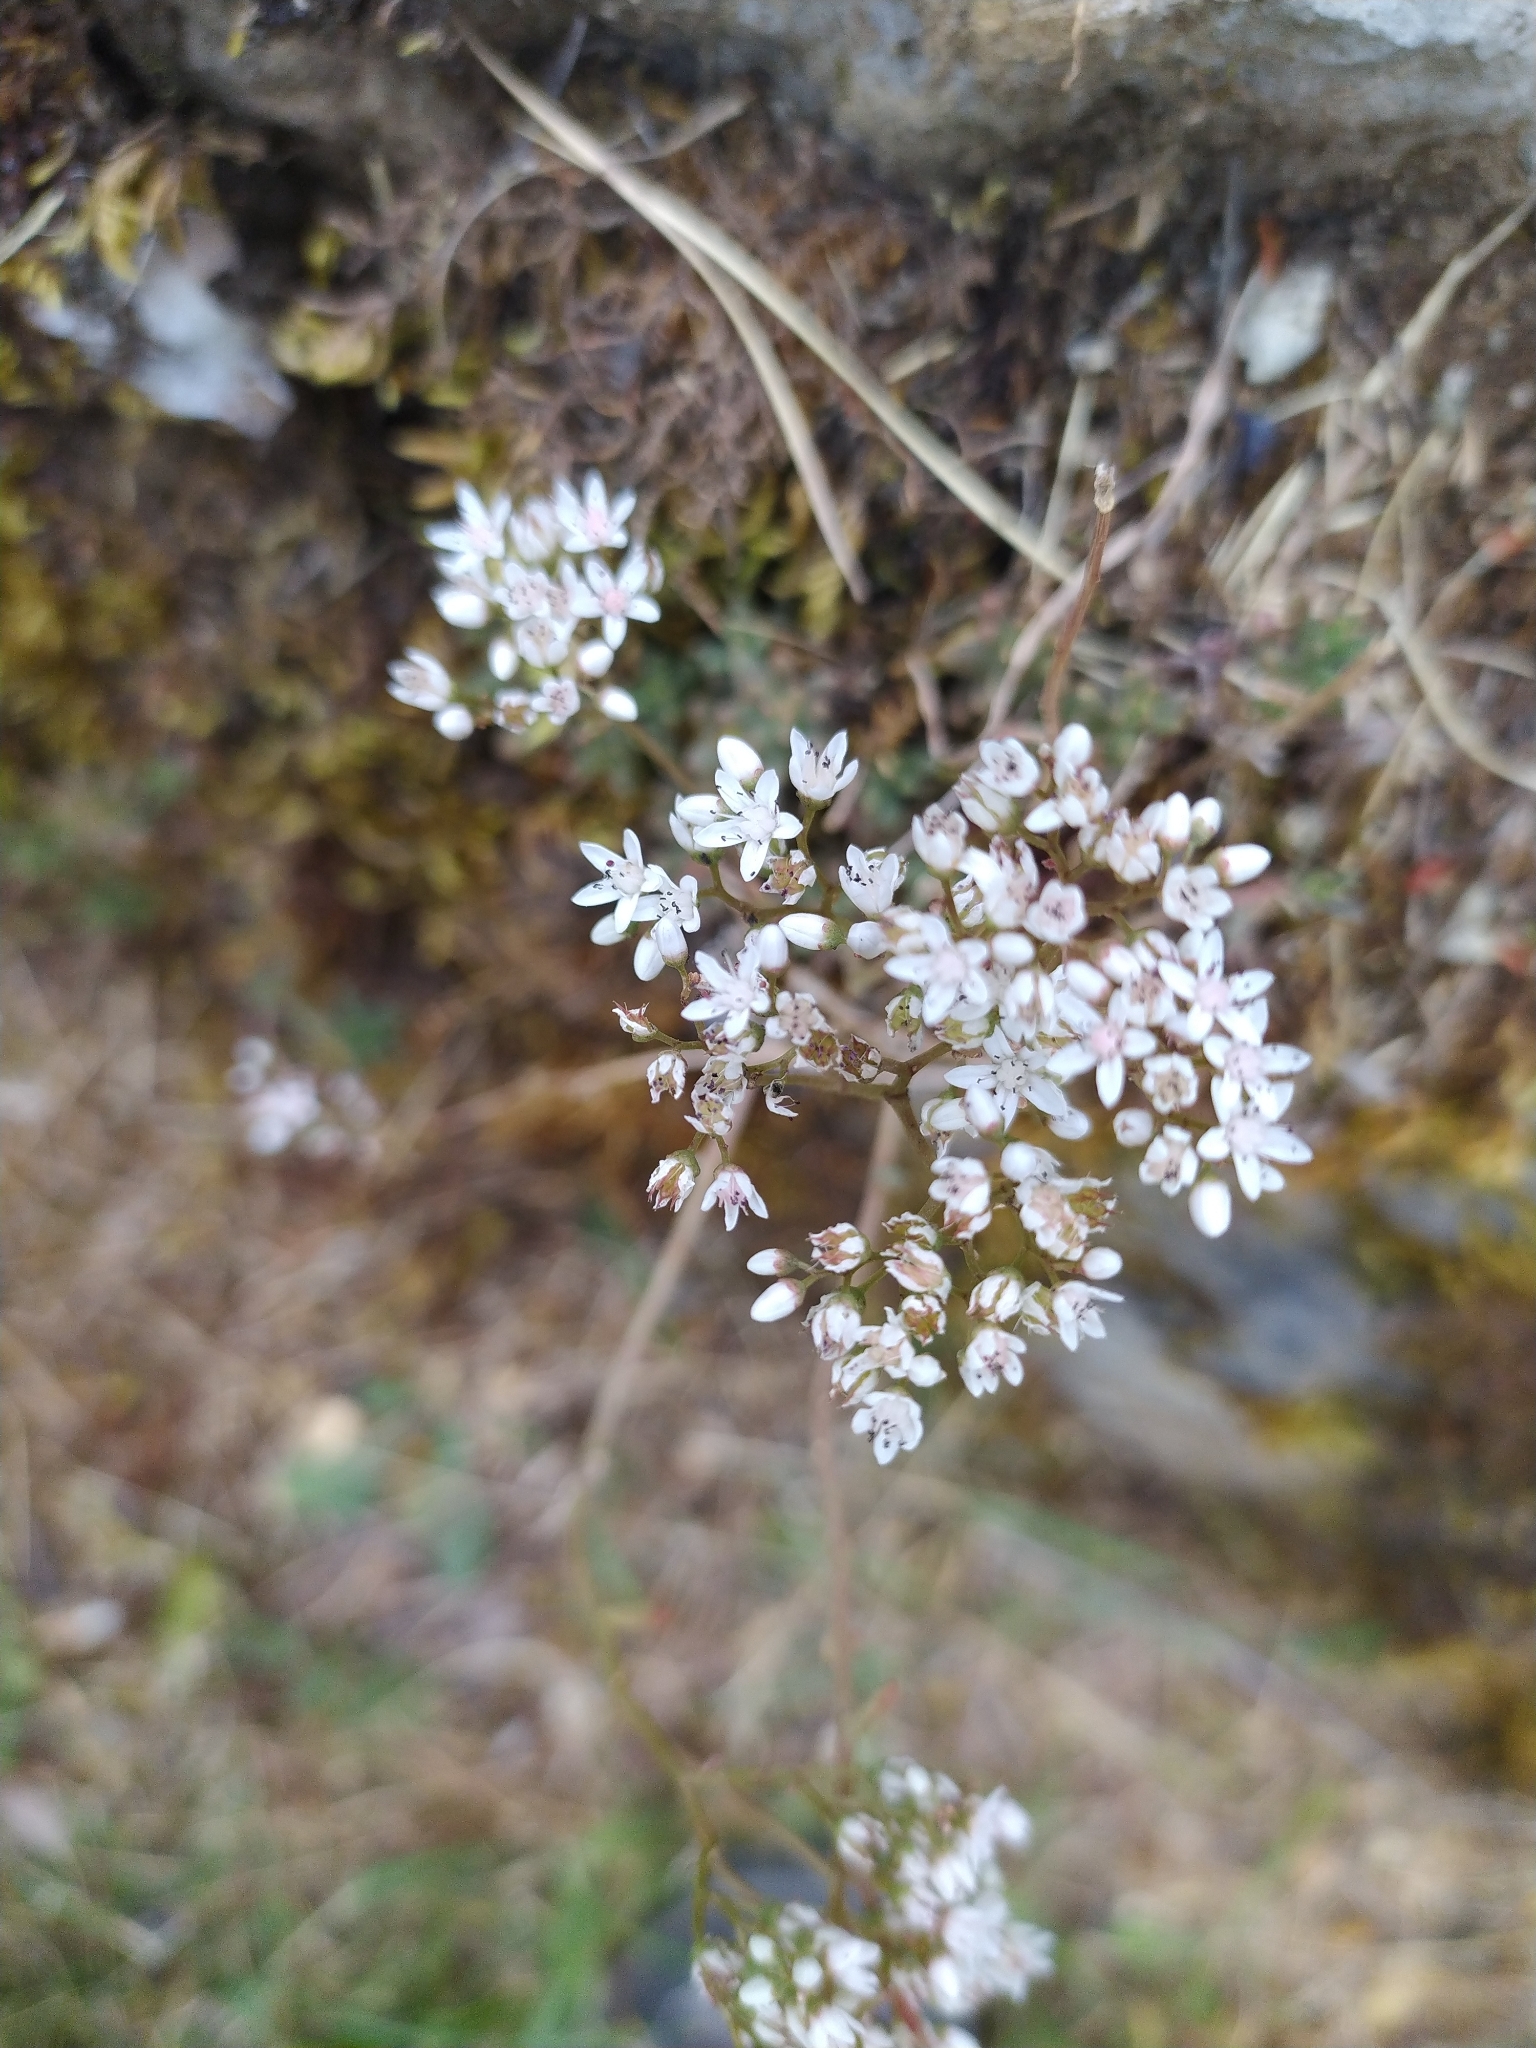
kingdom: Plantae
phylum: Tracheophyta
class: Magnoliopsida
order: Saxifragales
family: Crassulaceae
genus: Sedum
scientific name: Sedum album
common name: White stonecrop
